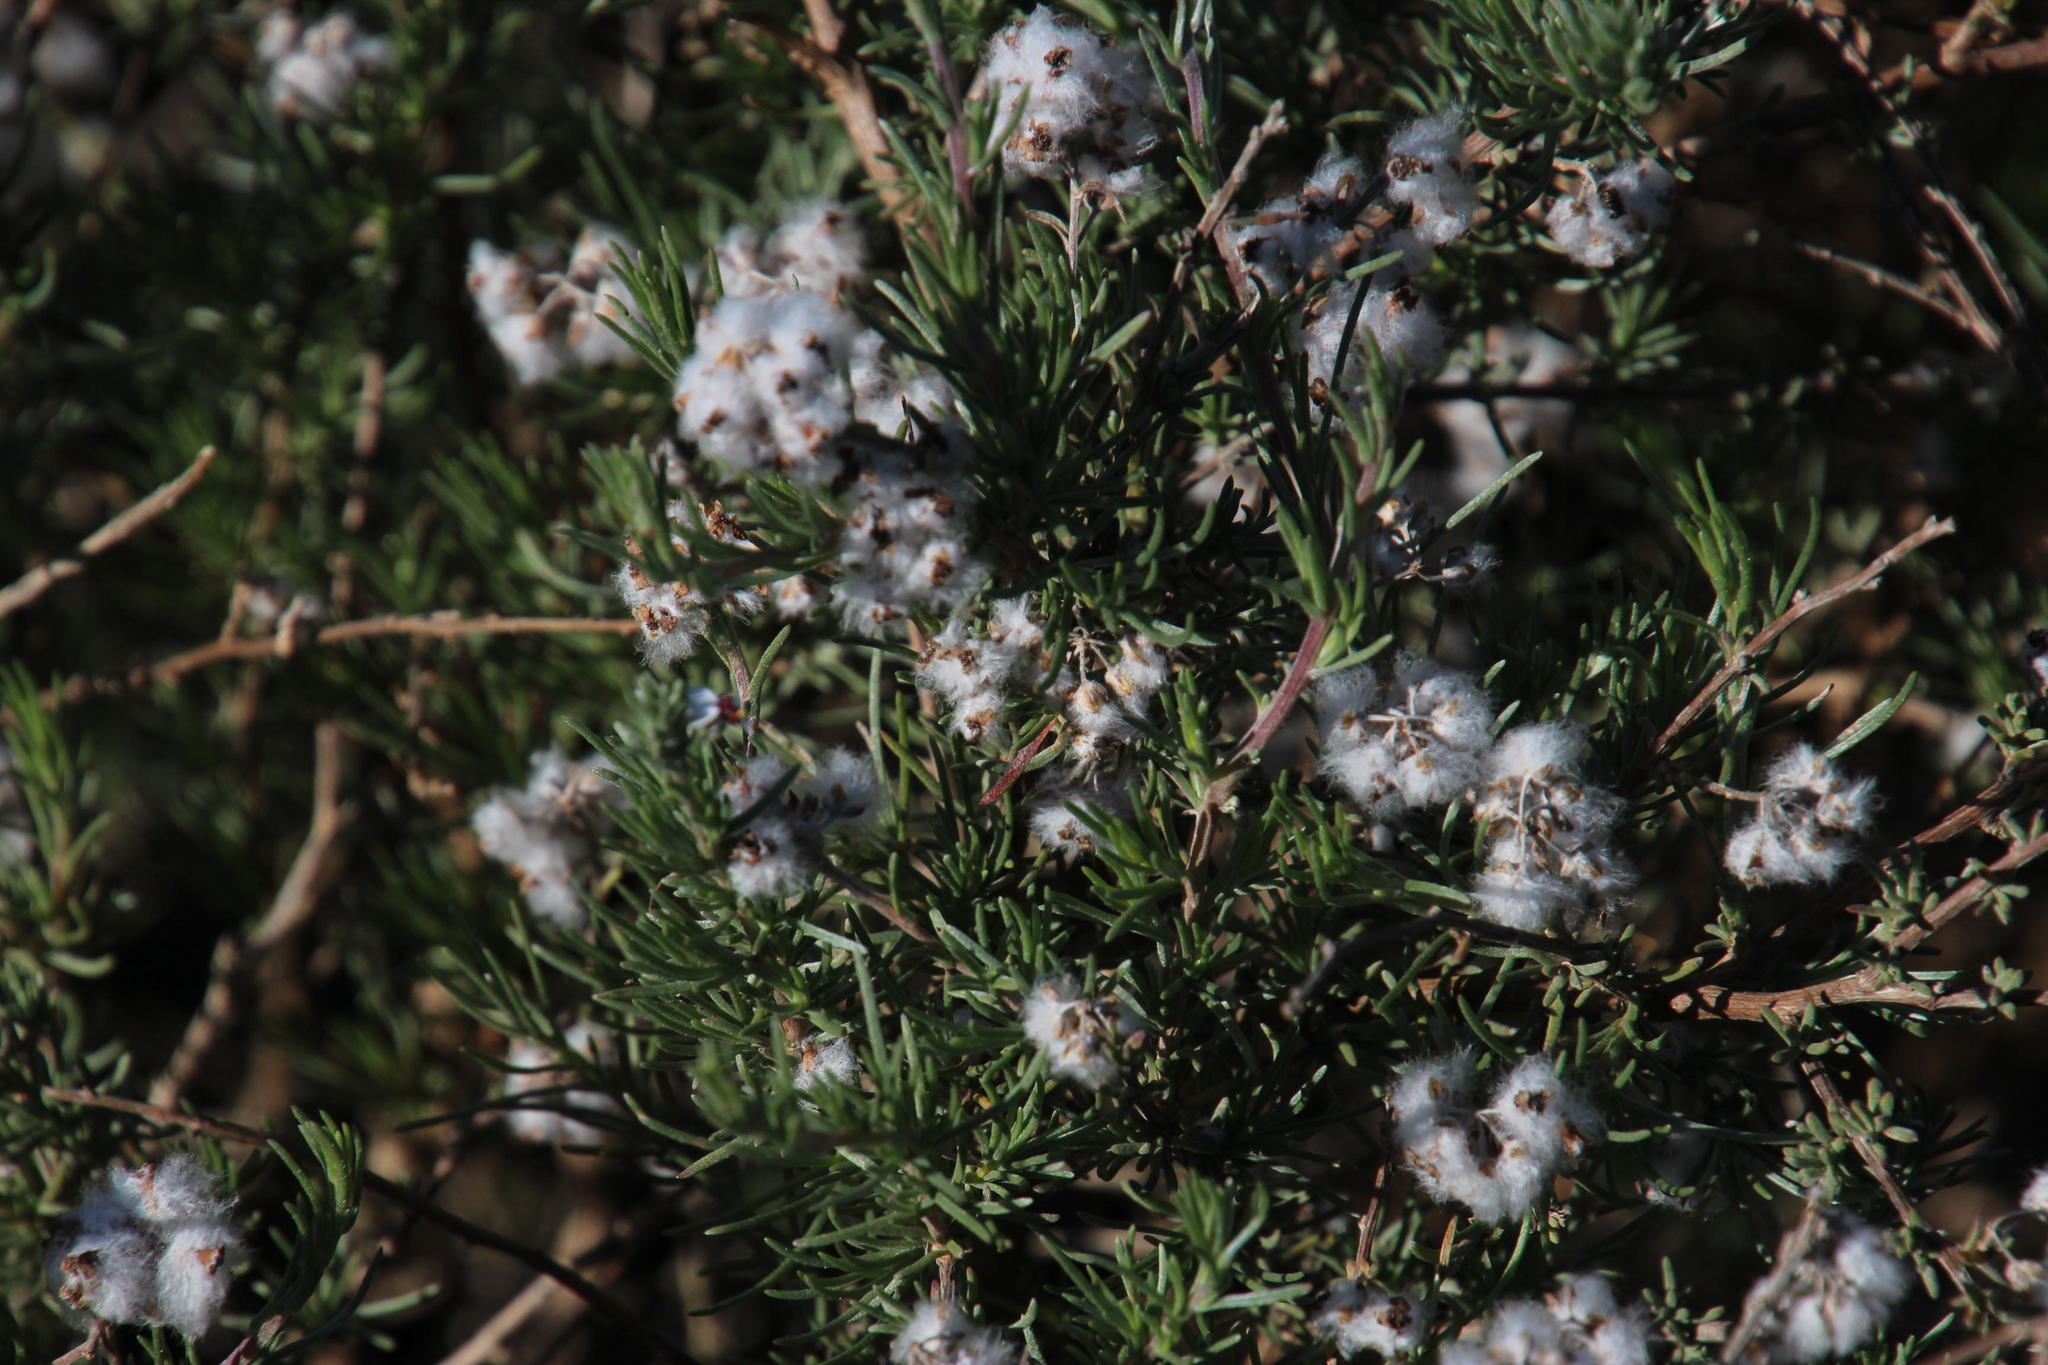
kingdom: Plantae
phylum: Tracheophyta
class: Magnoliopsida
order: Asterales
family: Asteraceae
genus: Eriocephalus
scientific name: Eriocephalus africanus
